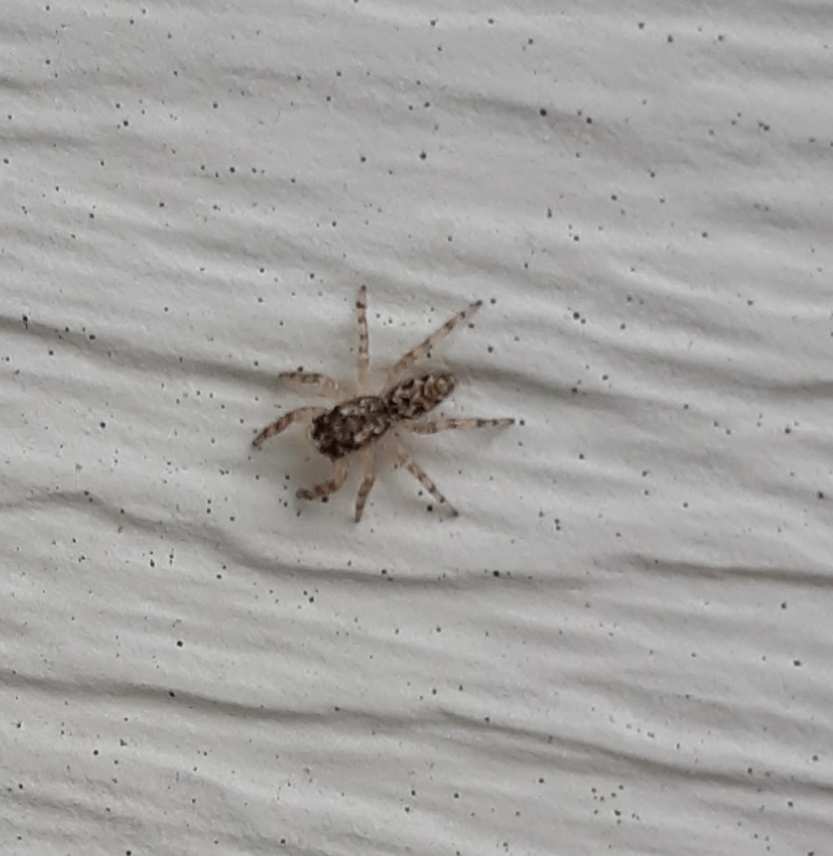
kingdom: Animalia
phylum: Arthropoda
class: Arachnida
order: Araneae
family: Salticidae
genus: Platycryptus
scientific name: Platycryptus undatus
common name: Tan jumping spider
